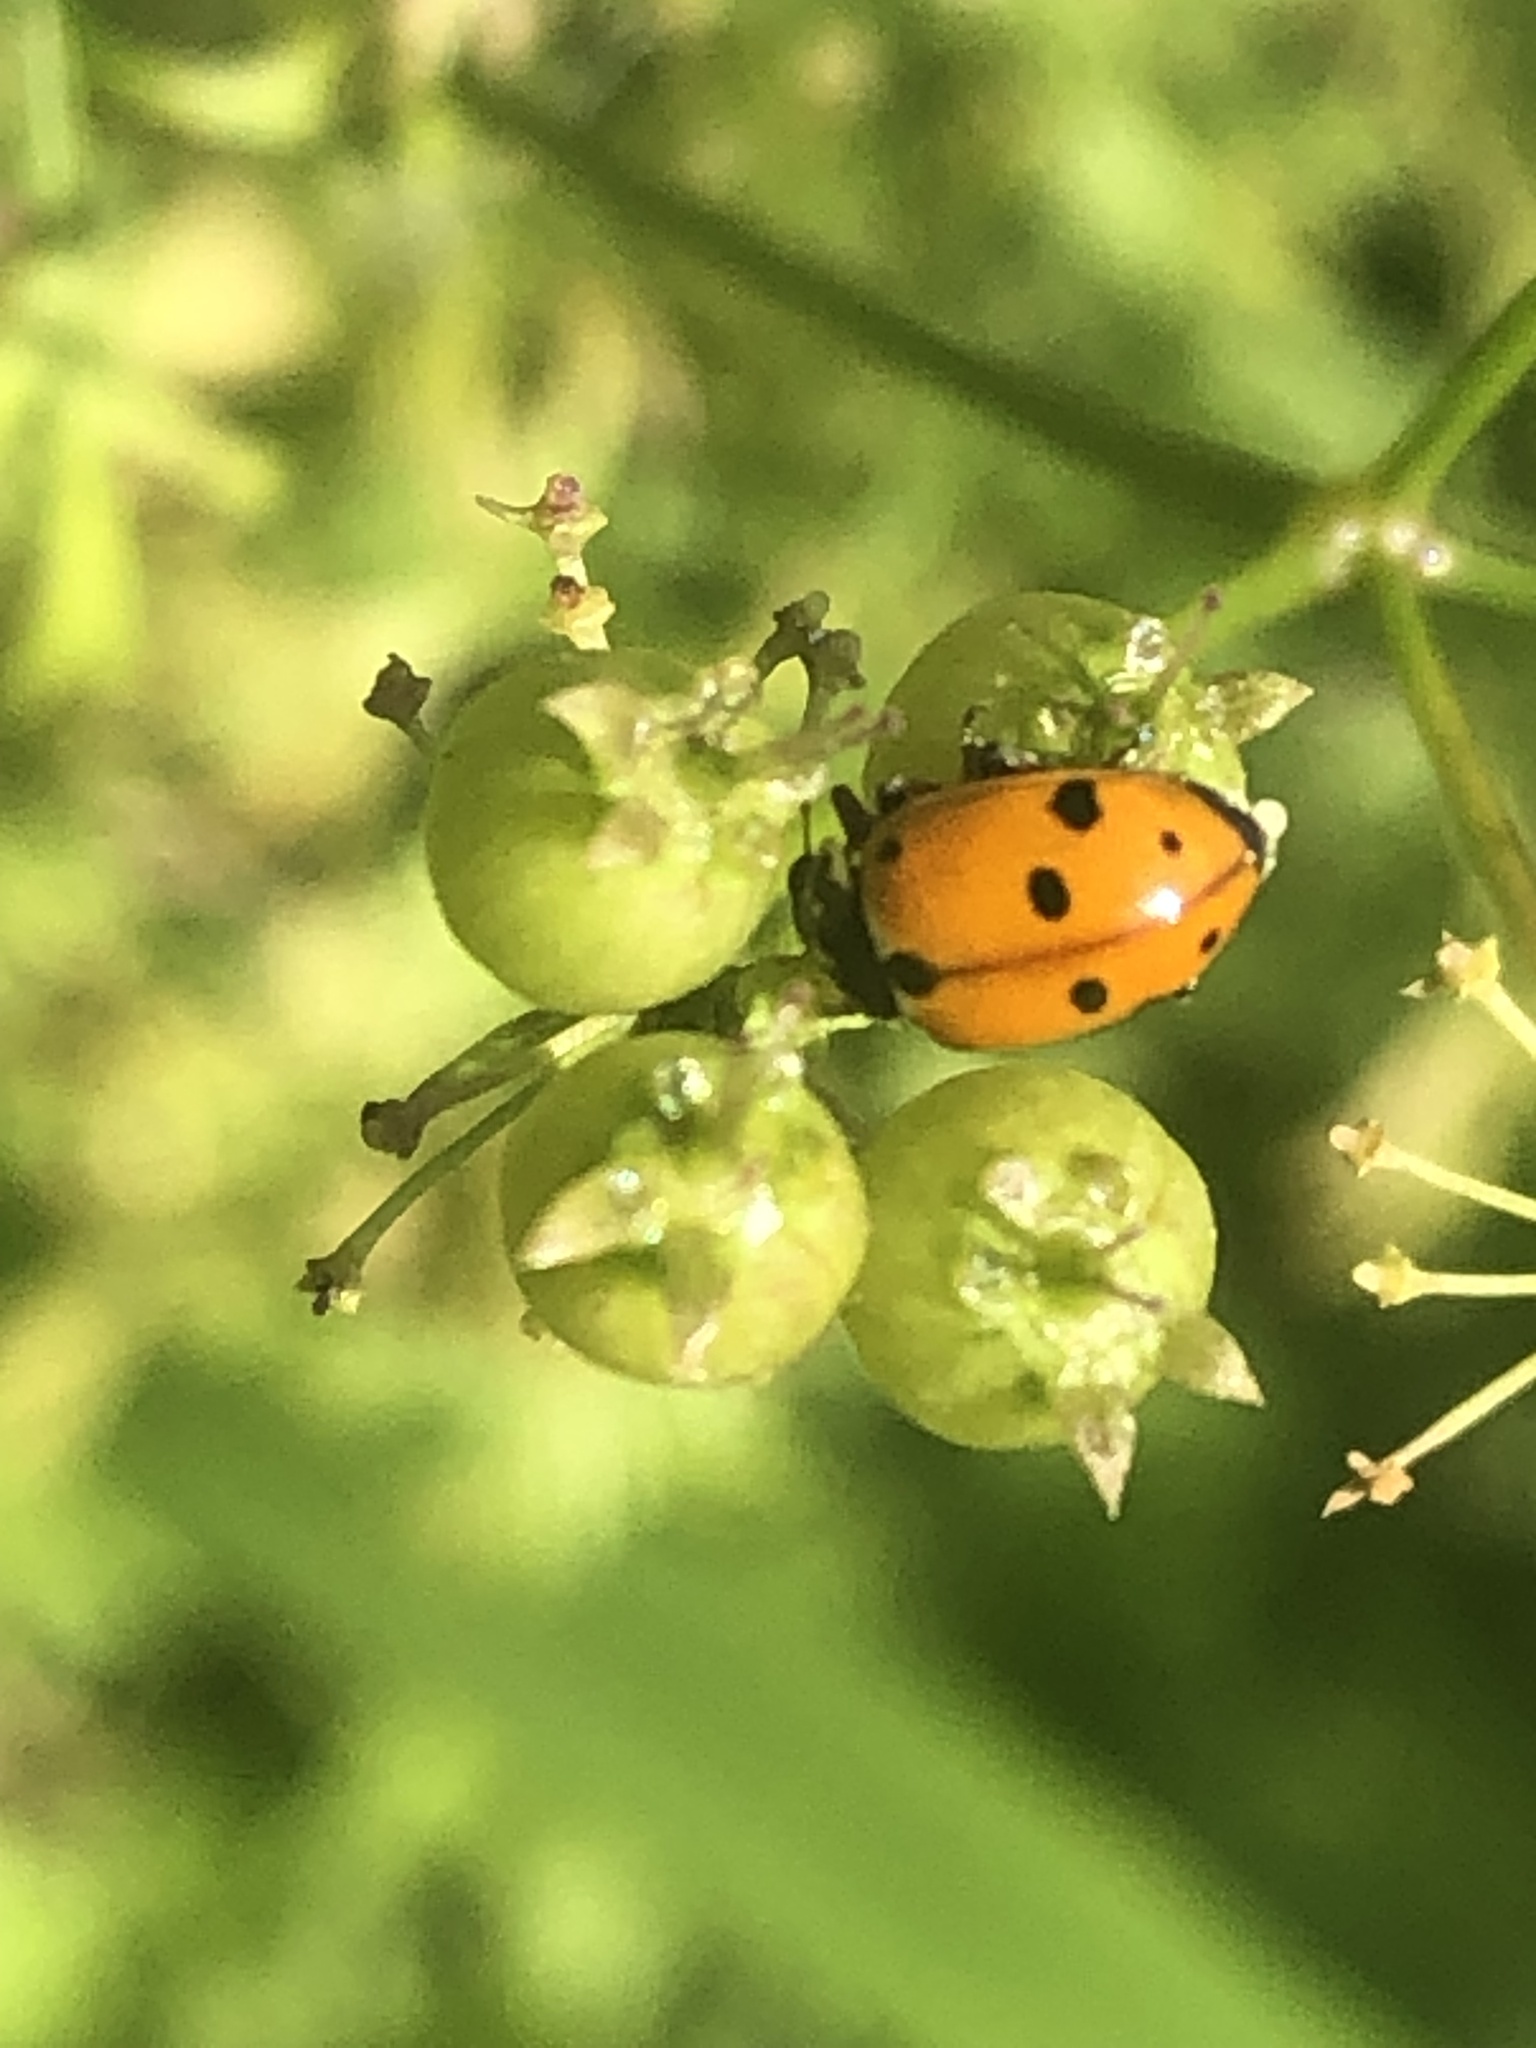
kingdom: Animalia
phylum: Arthropoda
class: Insecta
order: Coleoptera
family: Coccinellidae
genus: Hippodamia
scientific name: Hippodamia variegata
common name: Ladybird beetle
